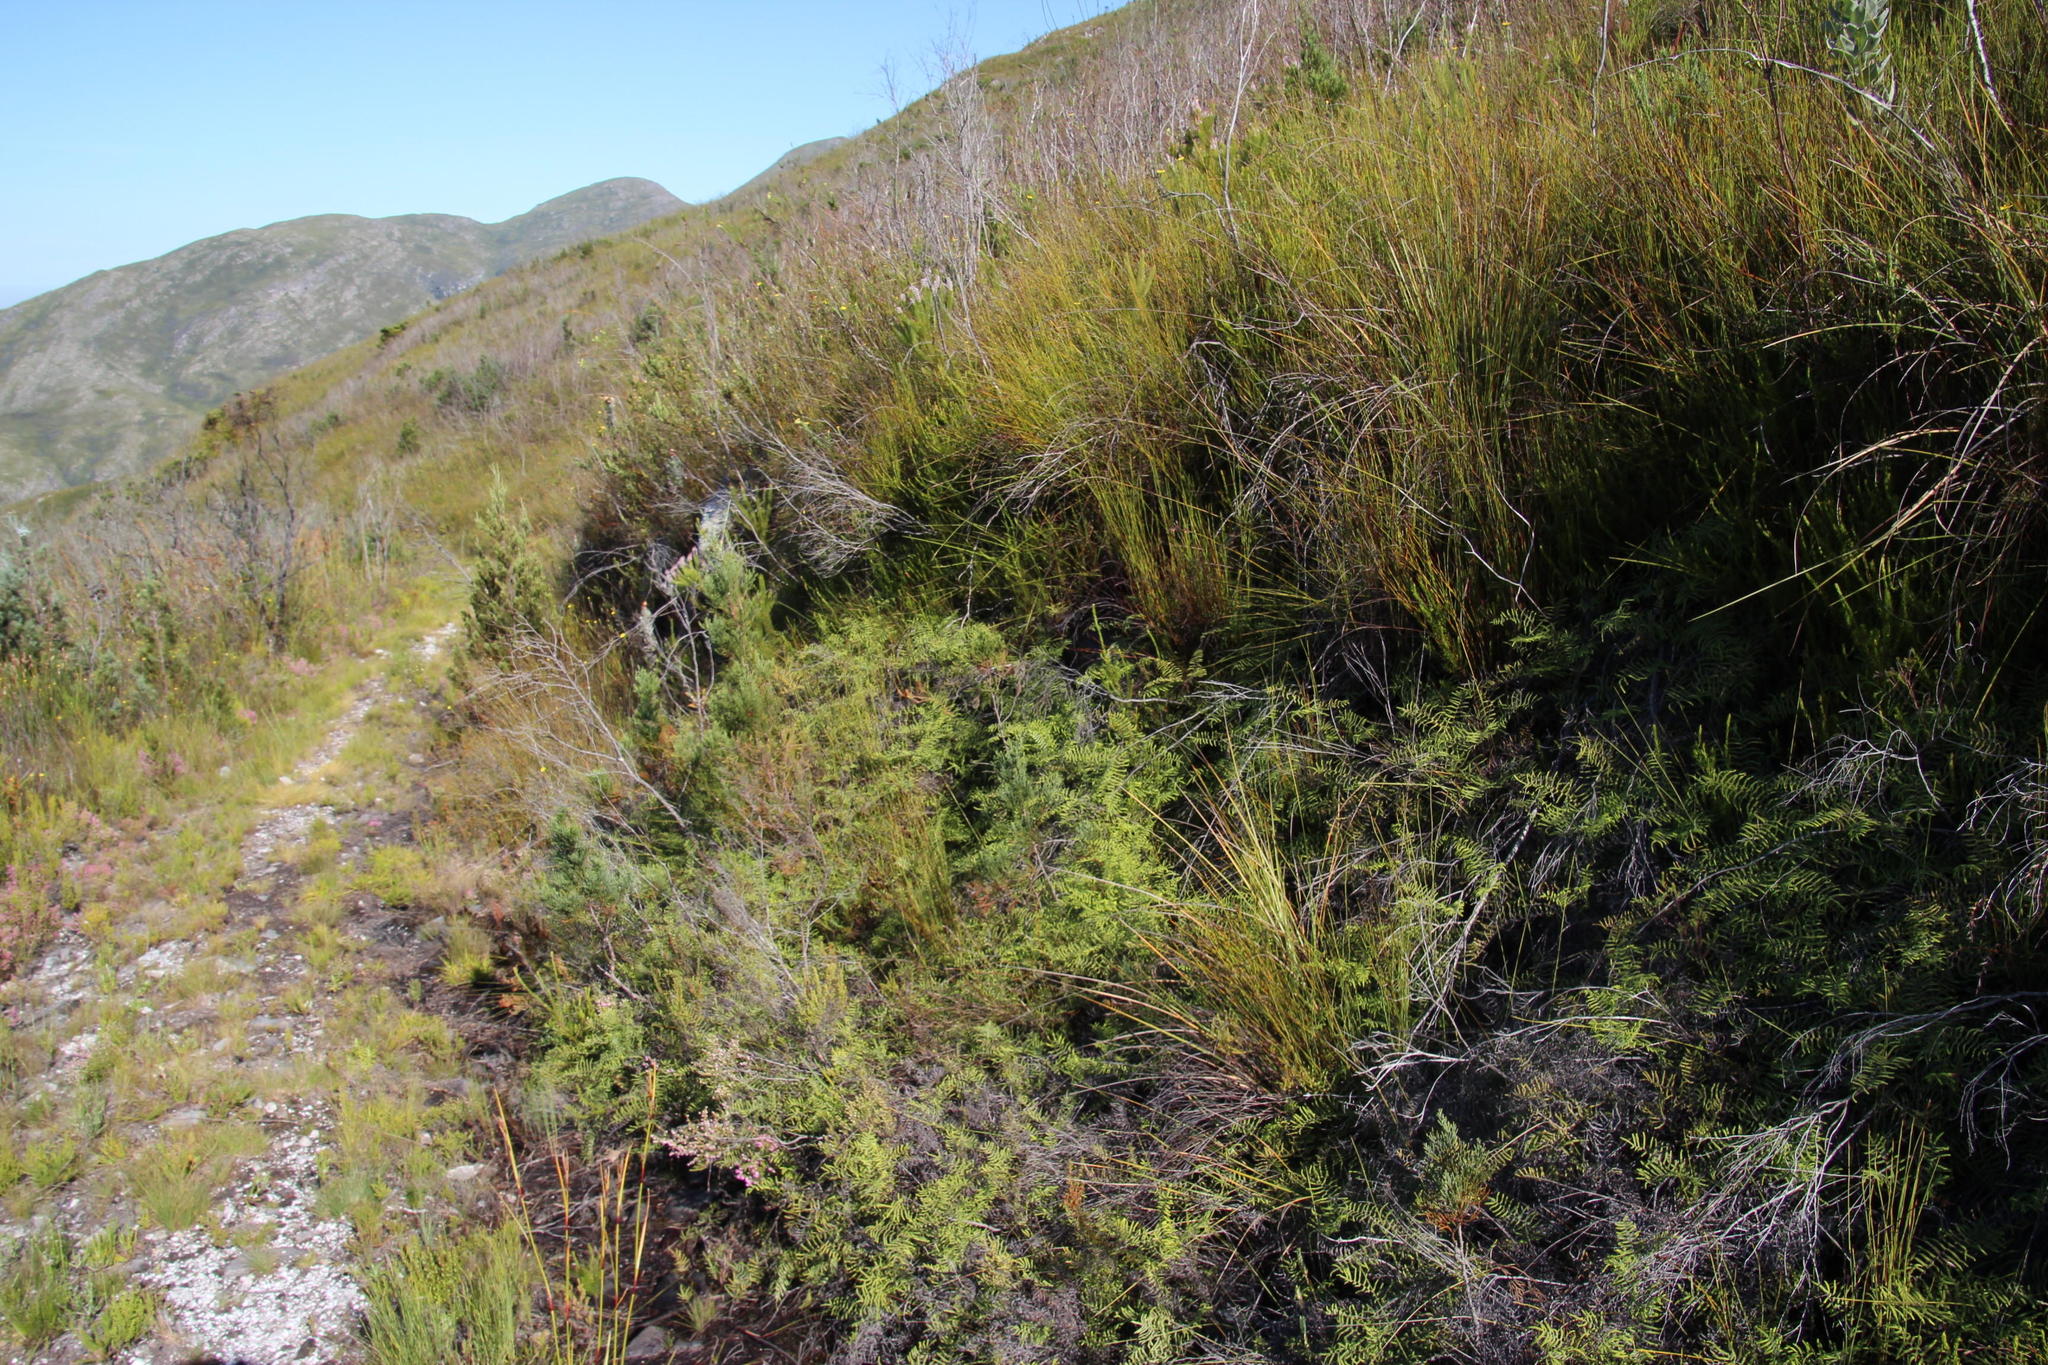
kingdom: Plantae
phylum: Tracheophyta
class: Polypodiopsida
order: Gleicheniales
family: Gleicheniaceae
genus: Gleichenia
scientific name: Gleichenia polypodioides
